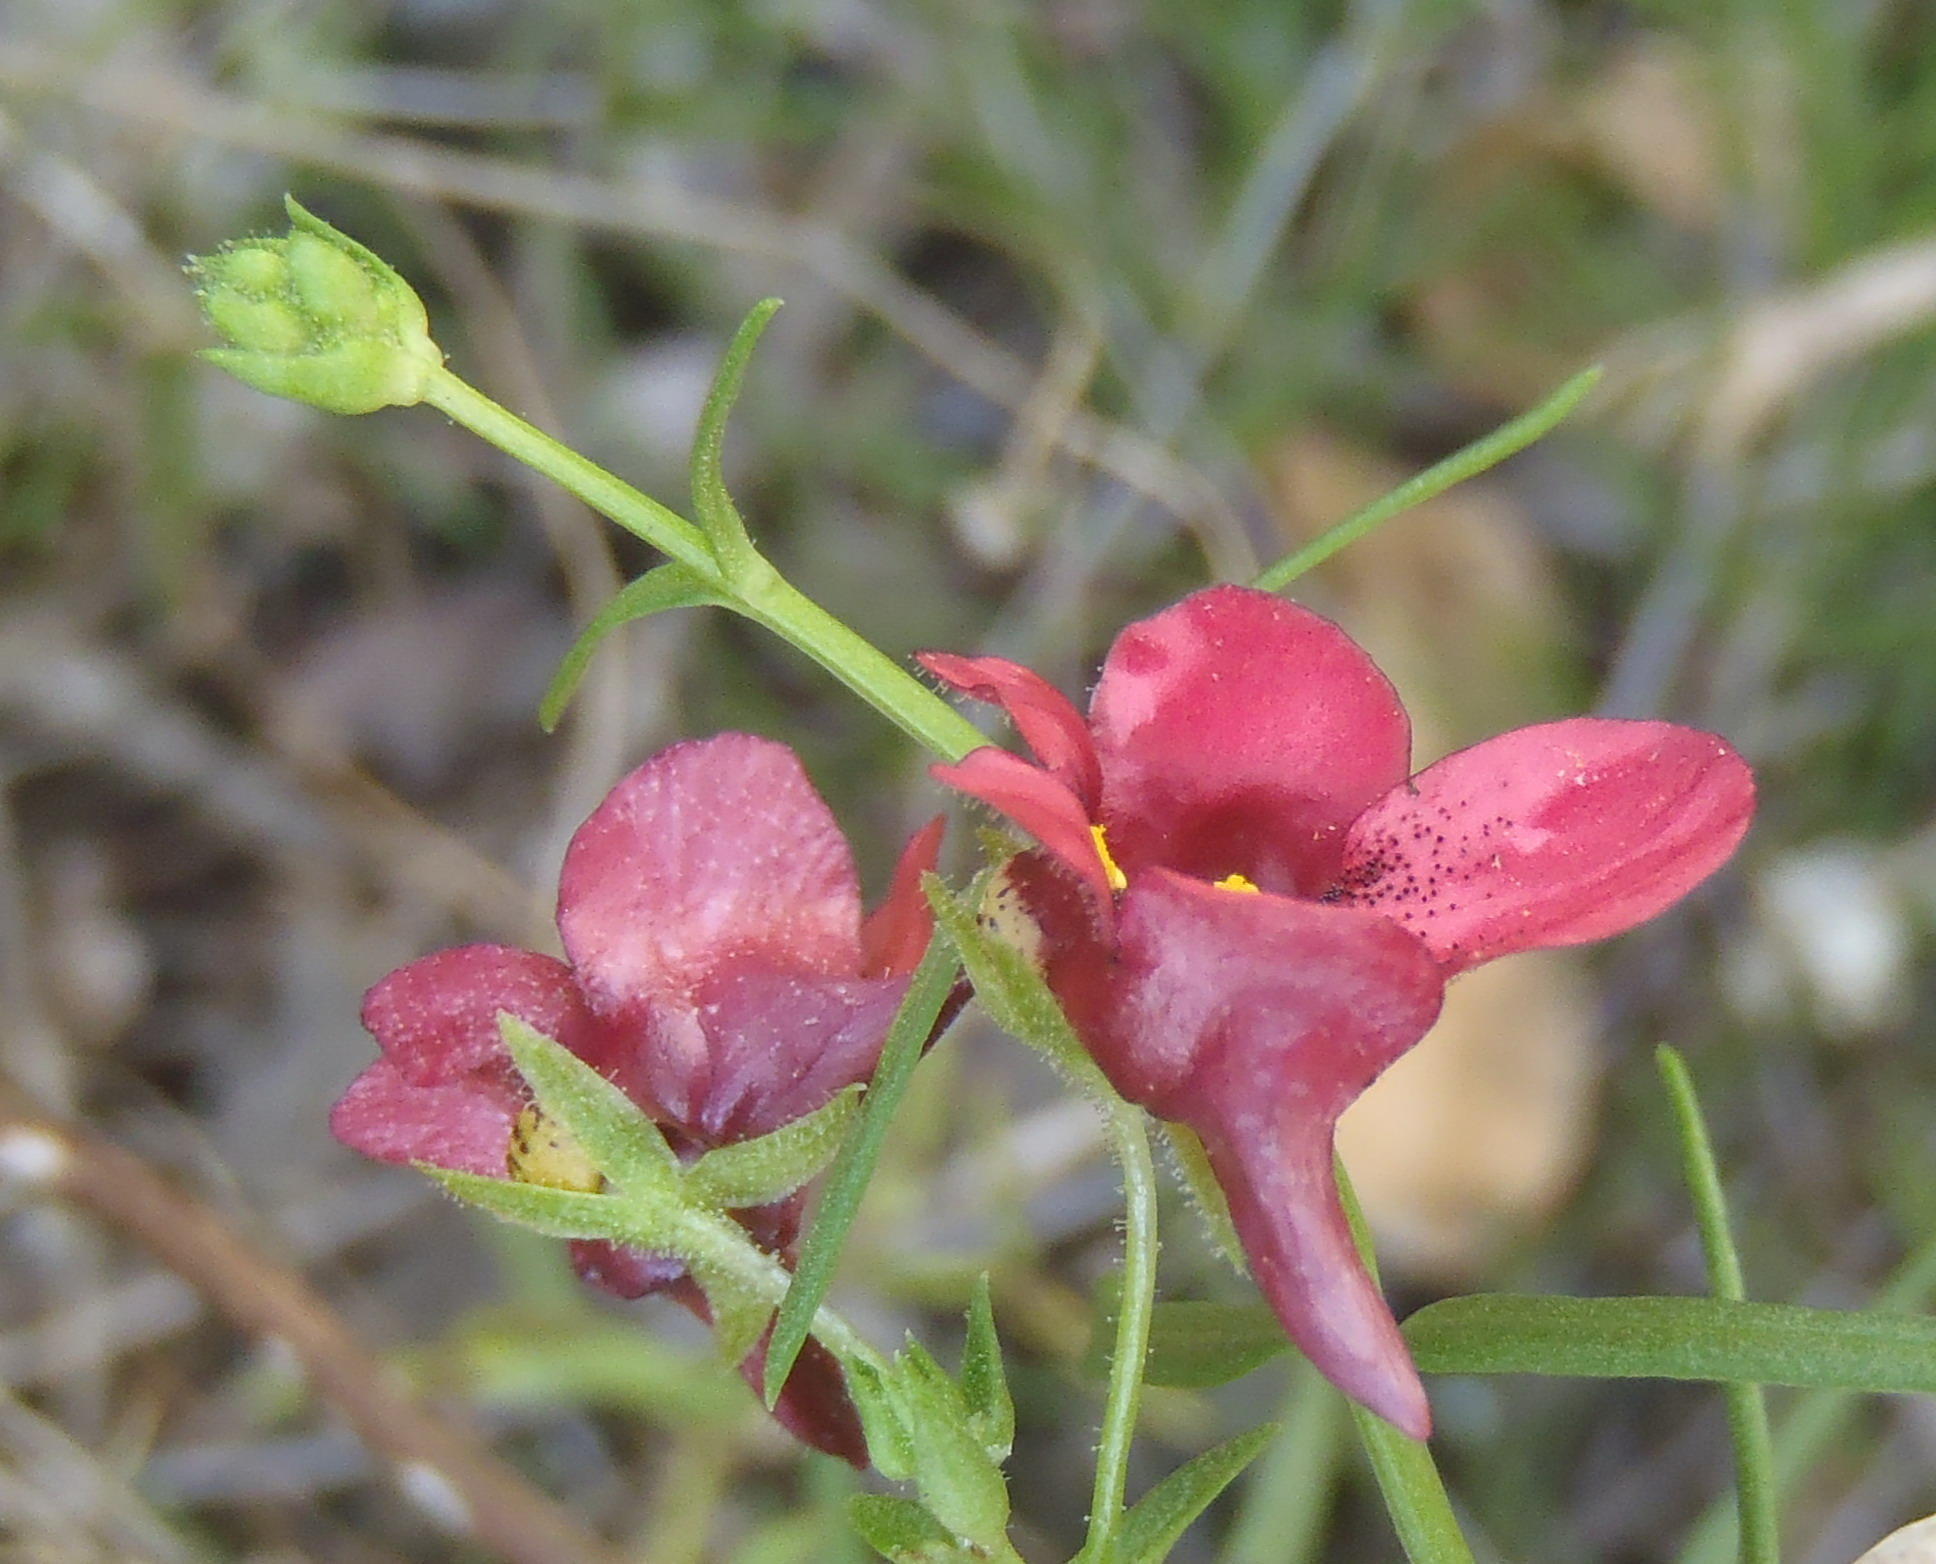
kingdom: Plantae
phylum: Tracheophyta
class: Magnoliopsida
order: Lamiales
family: Scrophulariaceae
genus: Diascia
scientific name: Diascia patens
